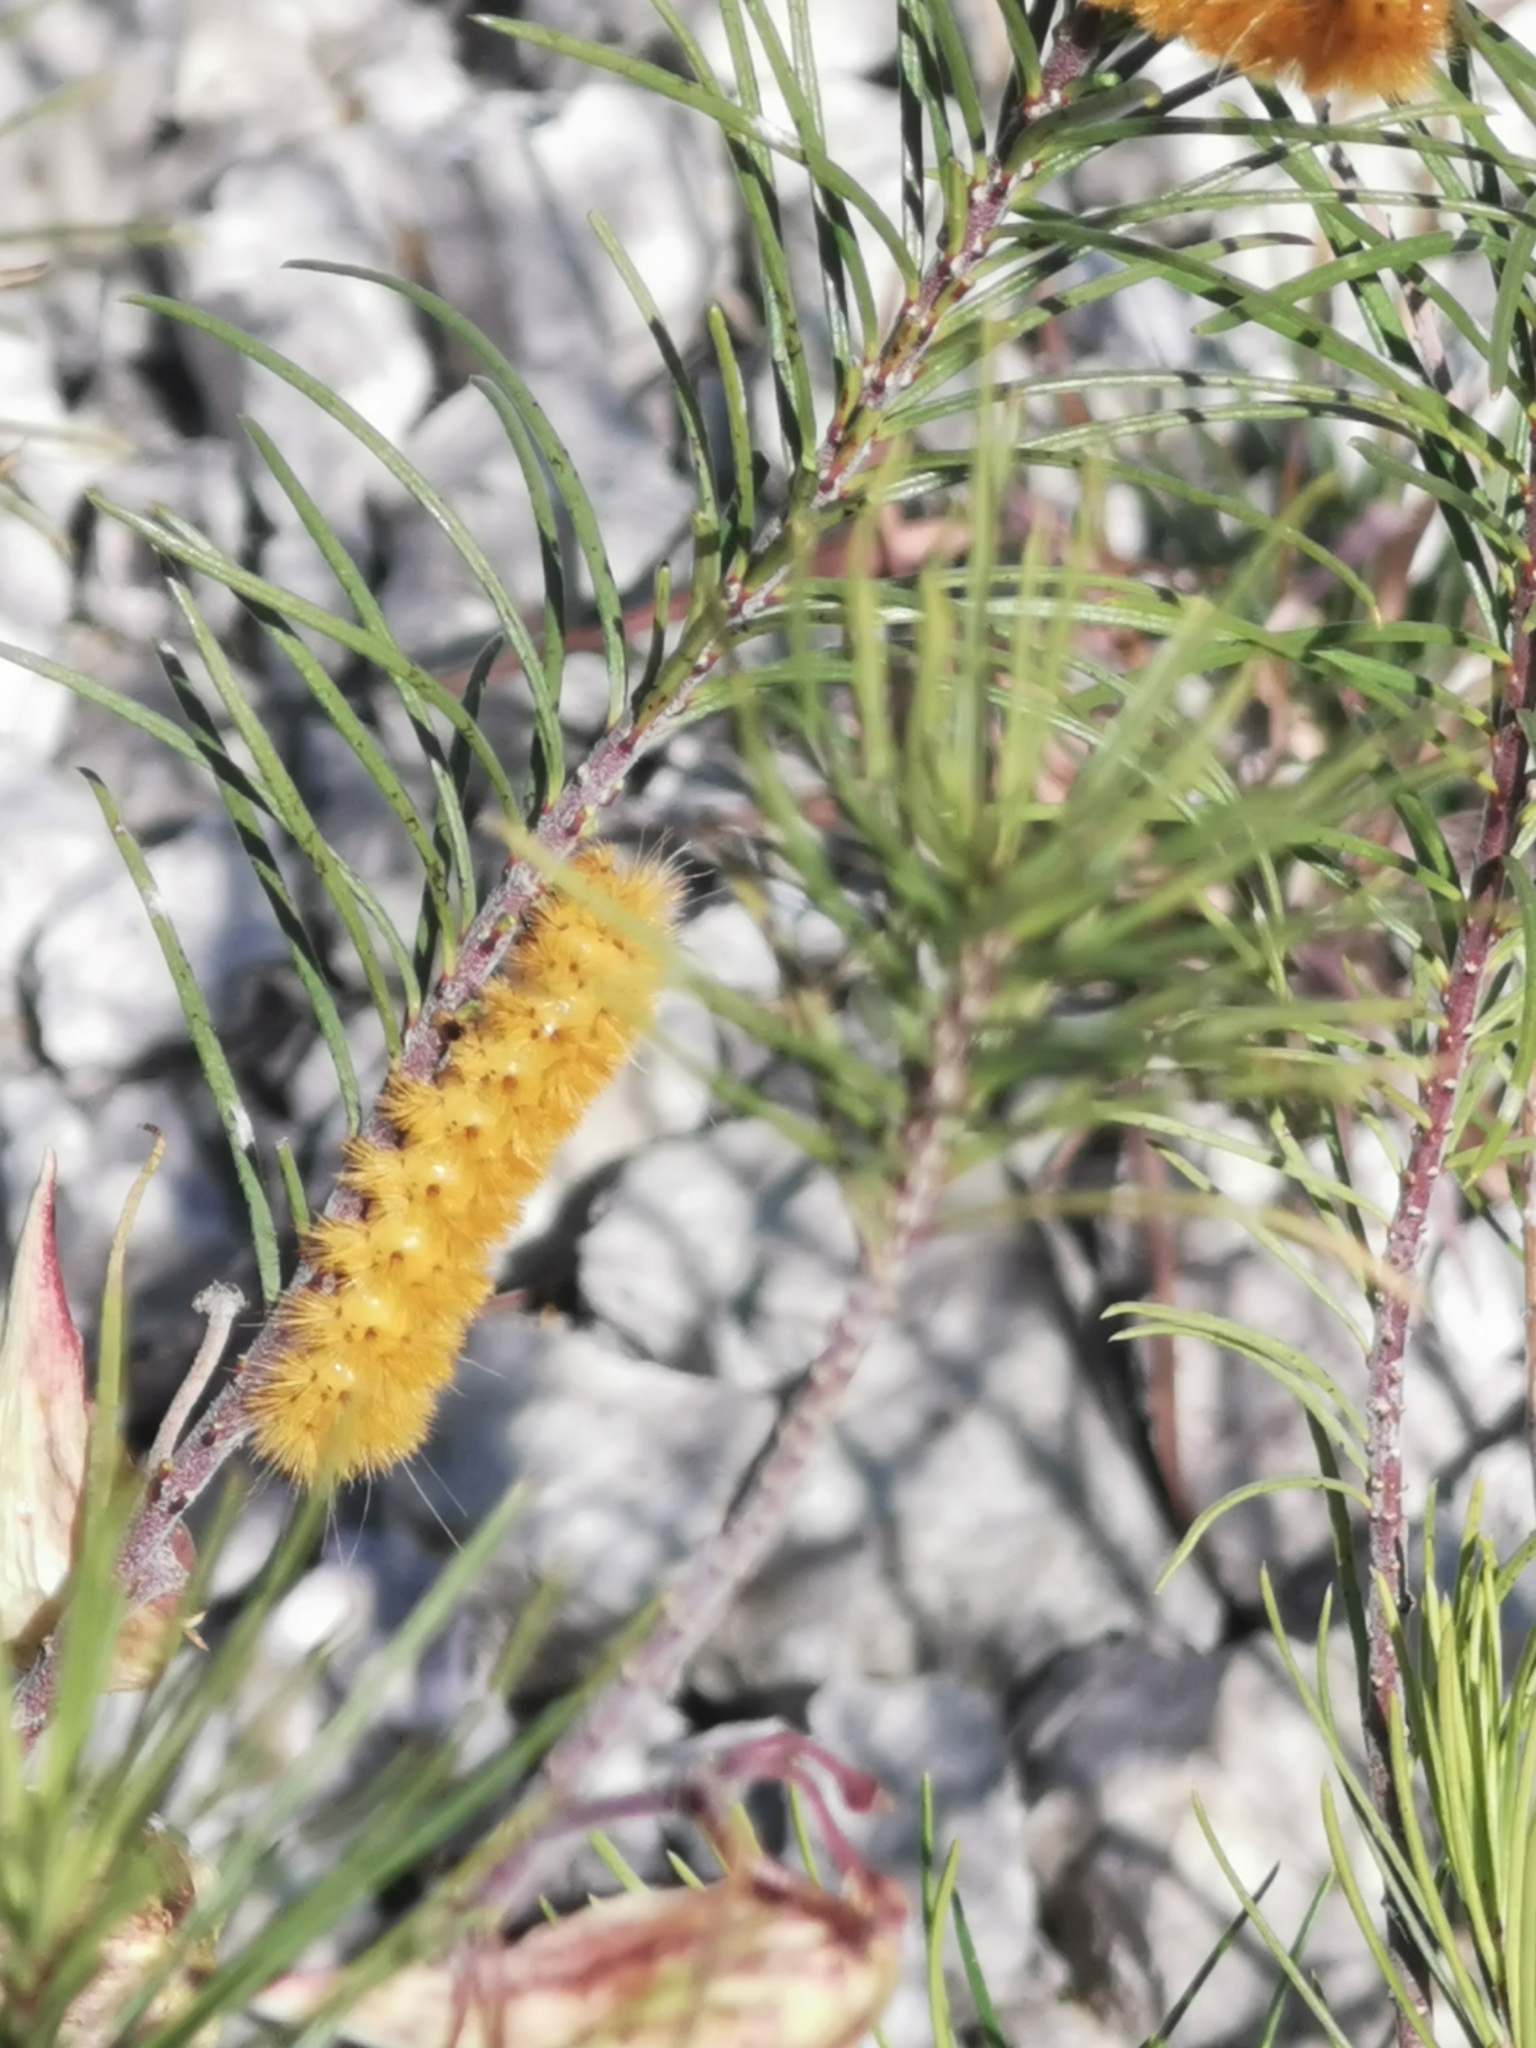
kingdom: Animalia
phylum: Arthropoda
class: Insecta
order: Lepidoptera
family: Erebidae
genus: Lerina
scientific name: Lerina incarnata
